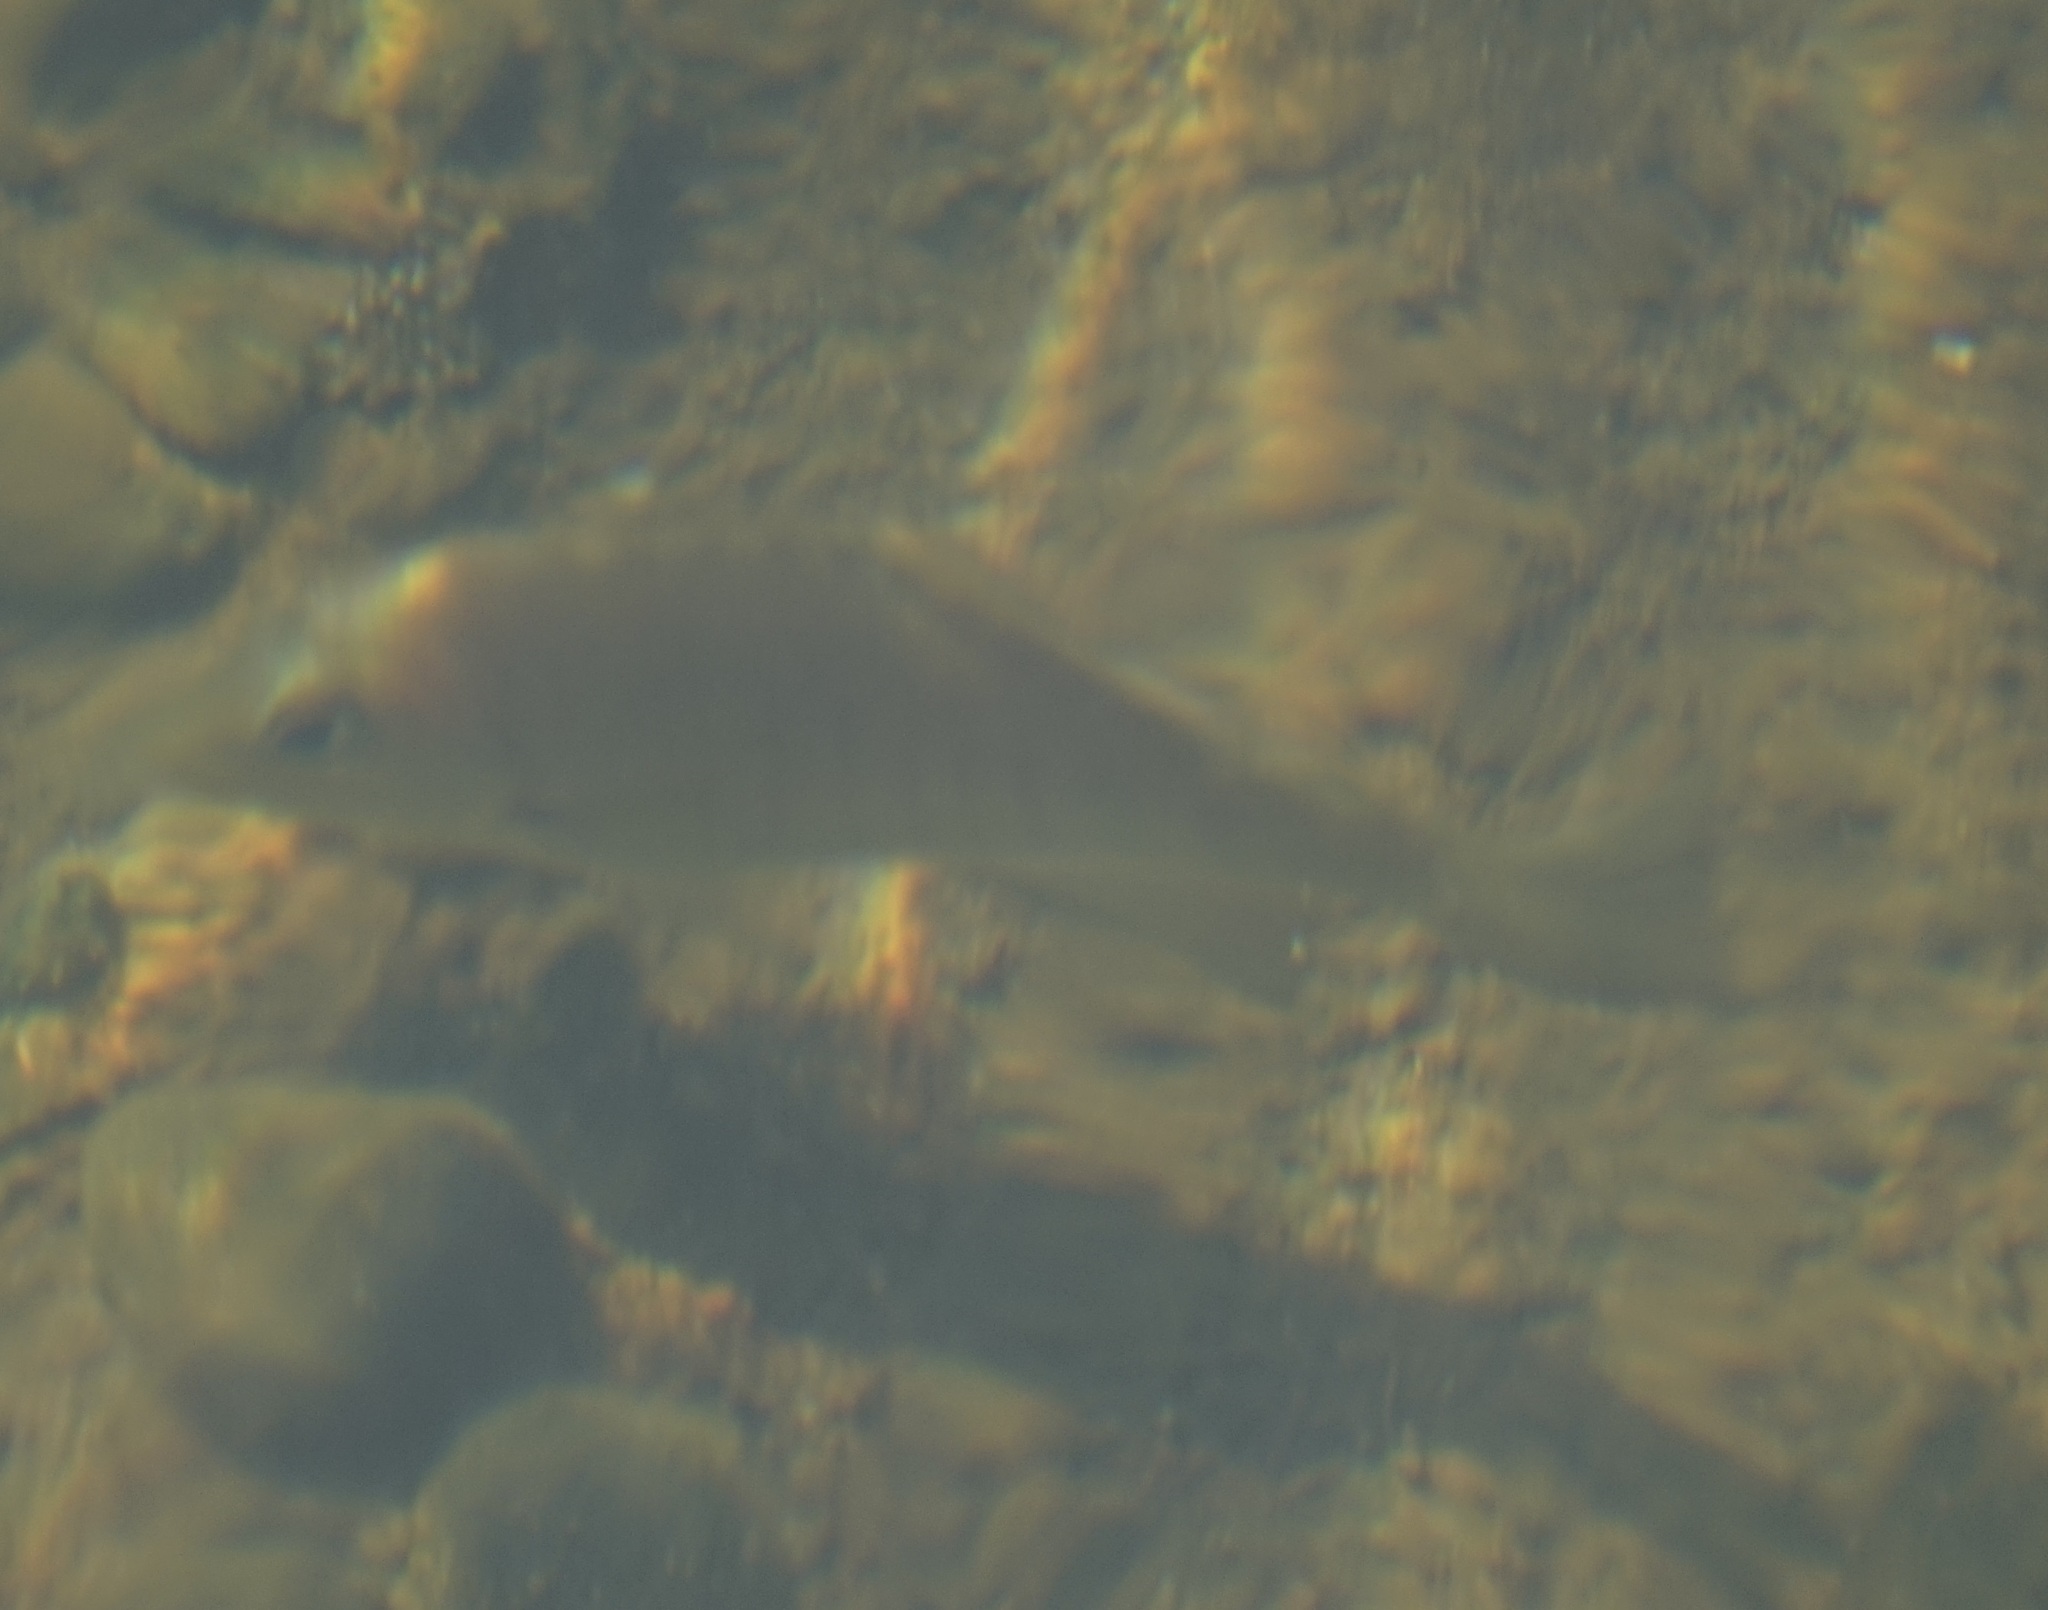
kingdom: Animalia
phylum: Chordata
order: Perciformes
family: Kyphosidae
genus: Girella
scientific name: Girella tricuspidata
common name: Parore
